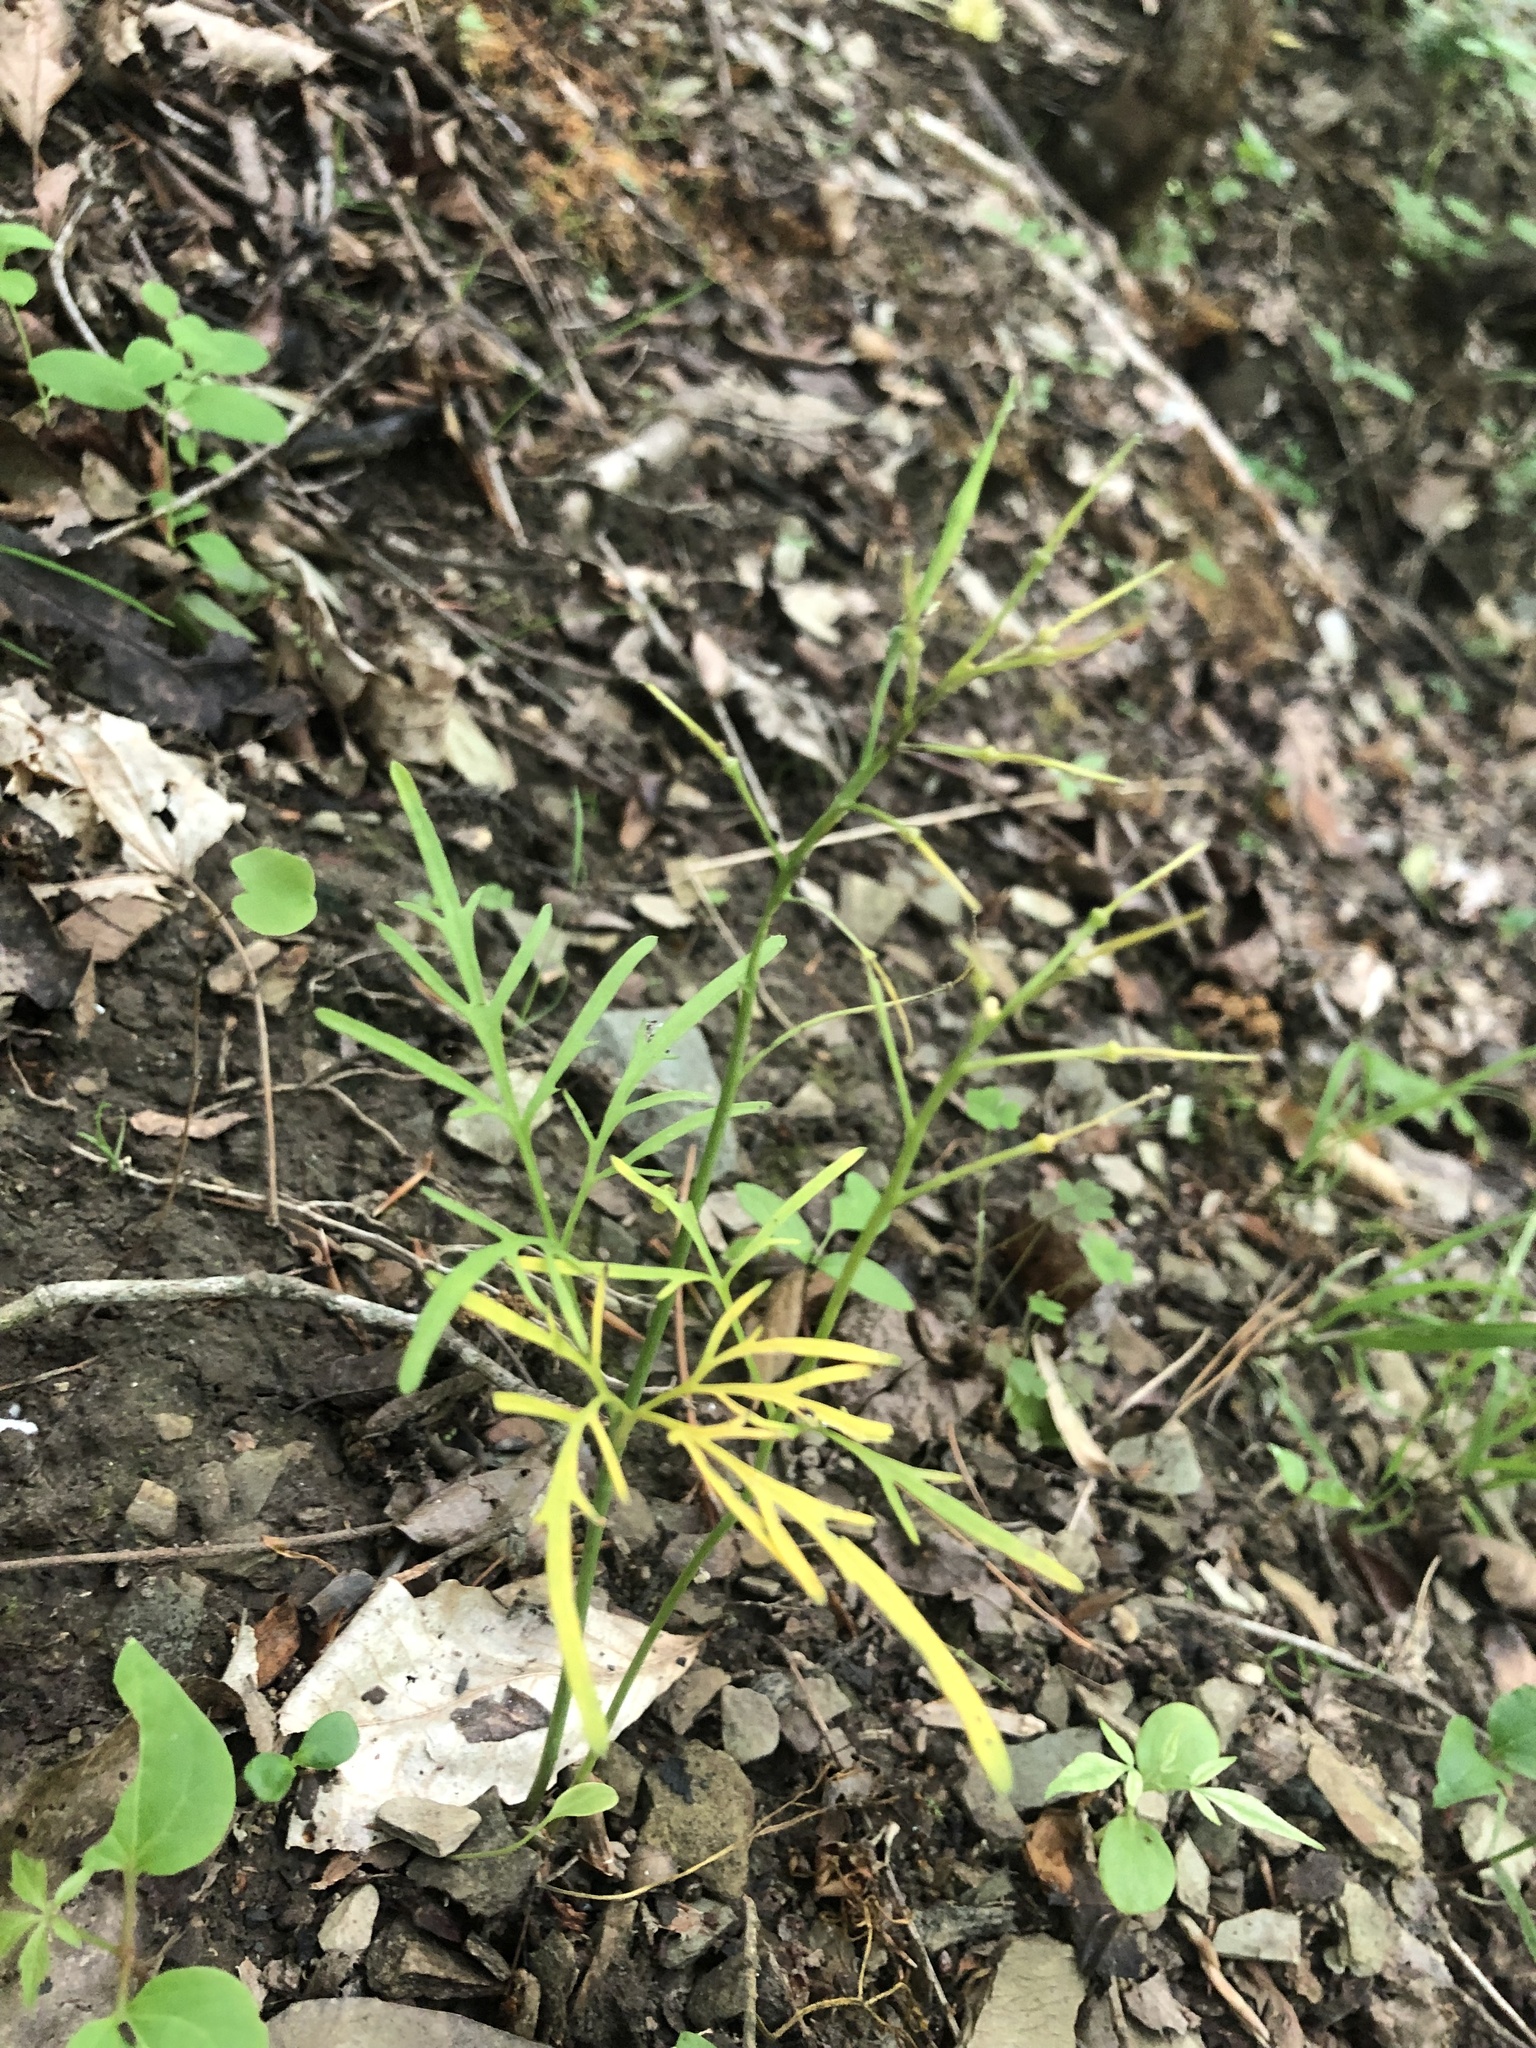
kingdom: Plantae
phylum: Tracheophyta
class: Magnoliopsida
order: Brassicales
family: Brassicaceae
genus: Cardamine
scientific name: Cardamine dissecta
